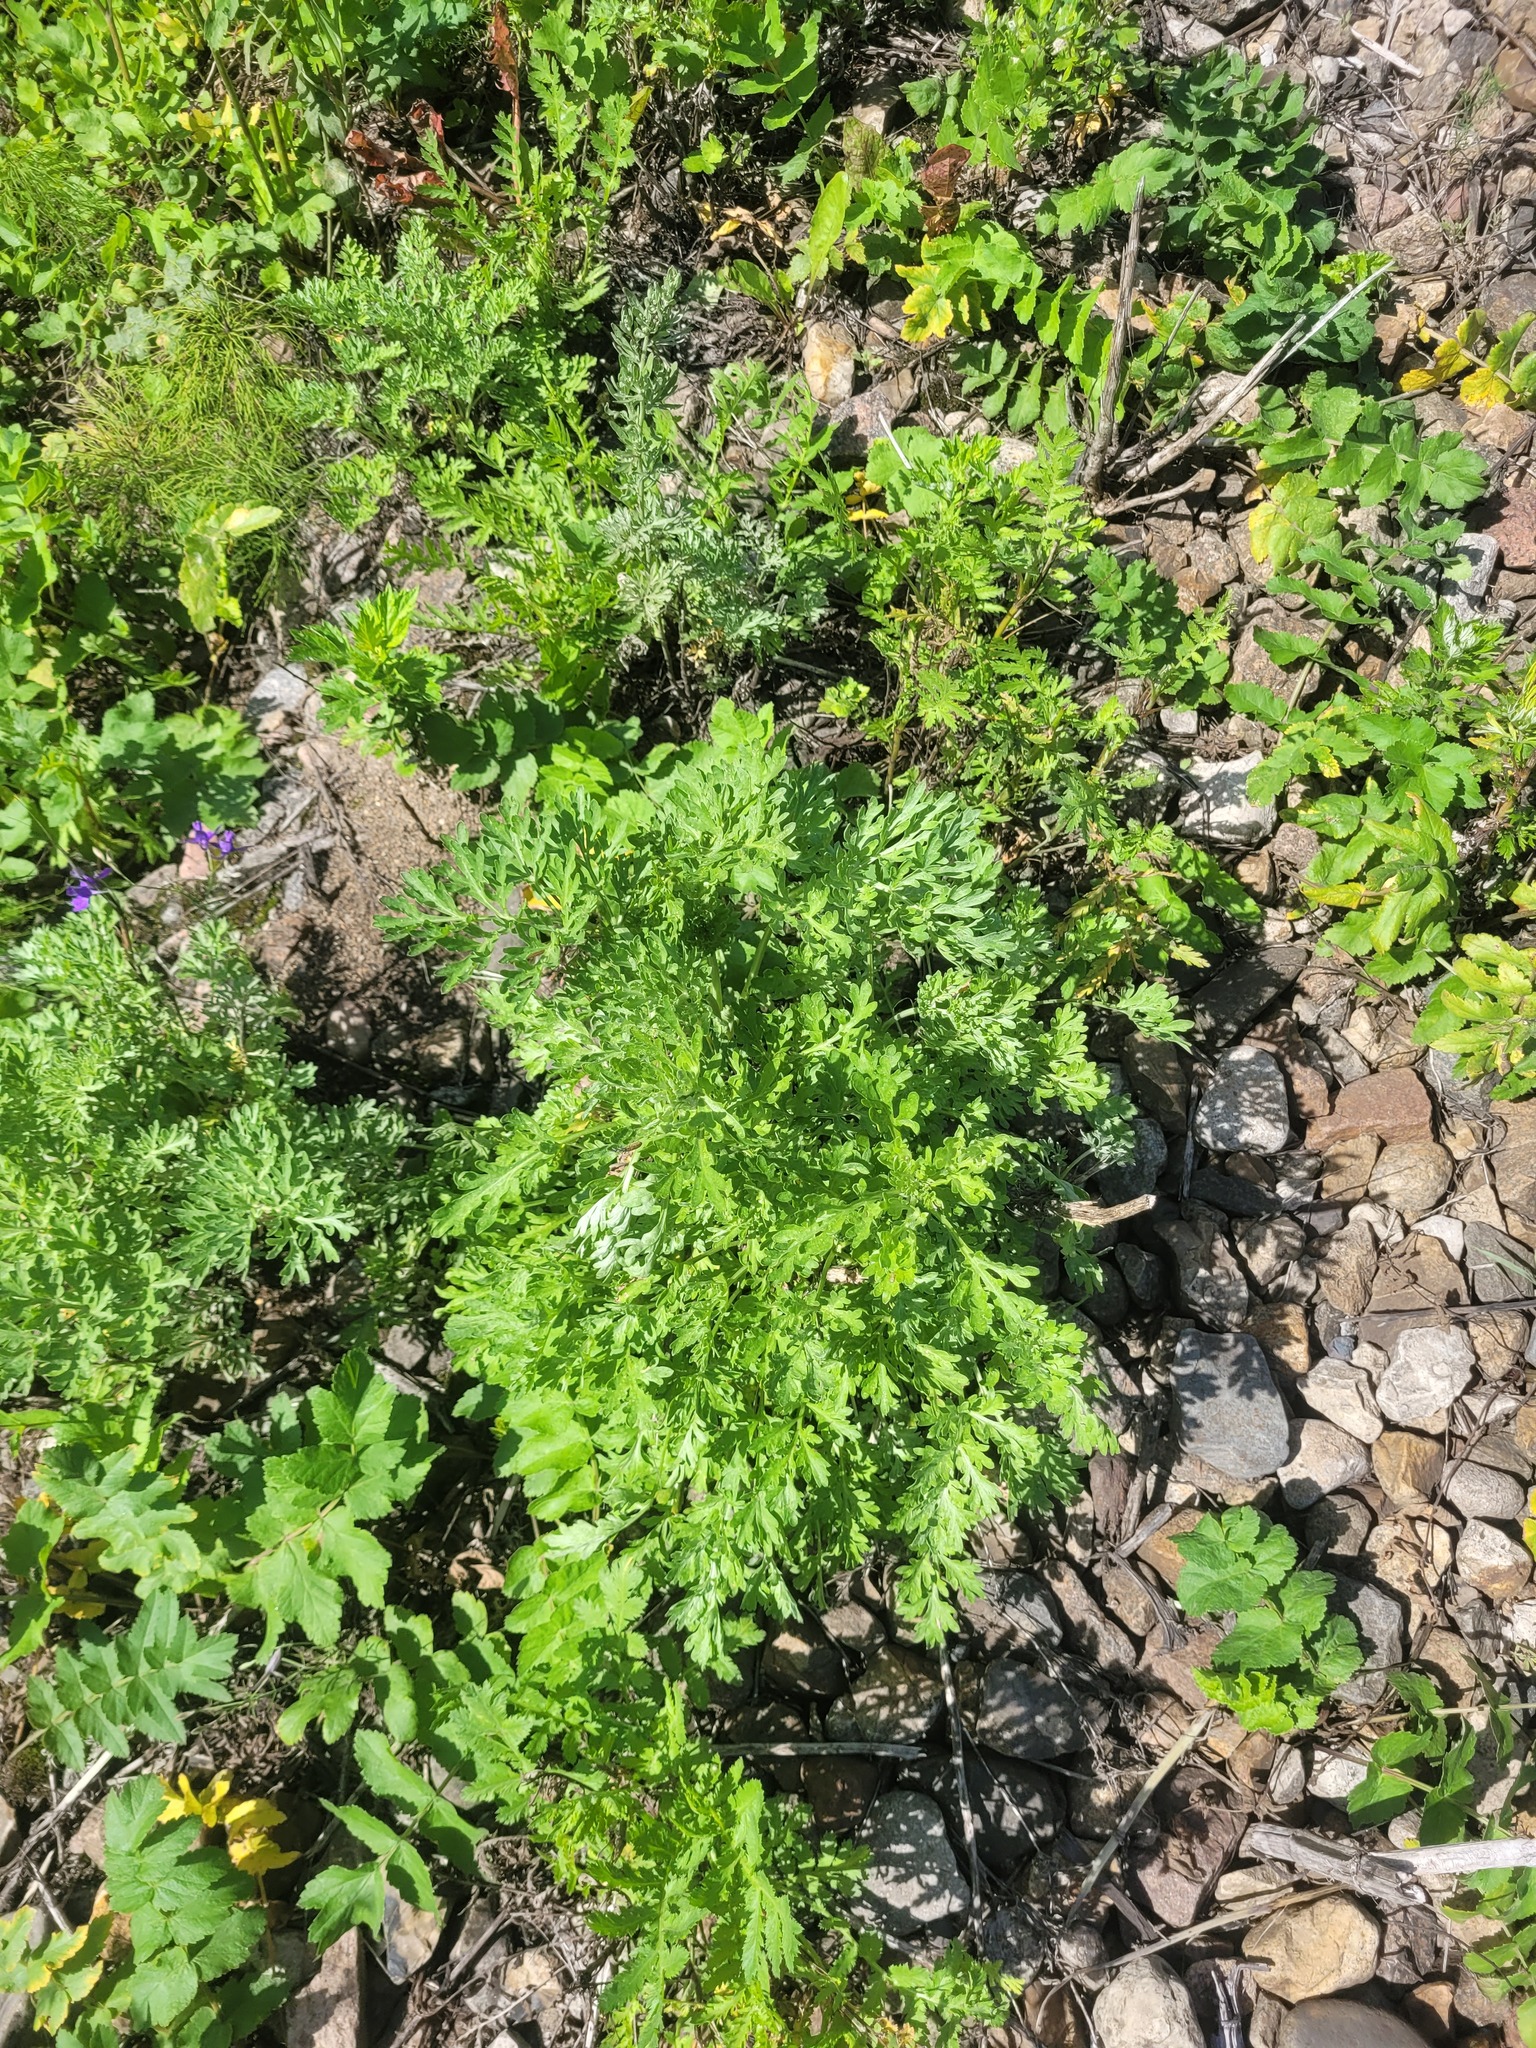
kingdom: Plantae
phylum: Tracheophyta
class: Magnoliopsida
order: Asterales
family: Asteraceae
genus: Artemisia
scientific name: Artemisia absinthium
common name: Wormwood
